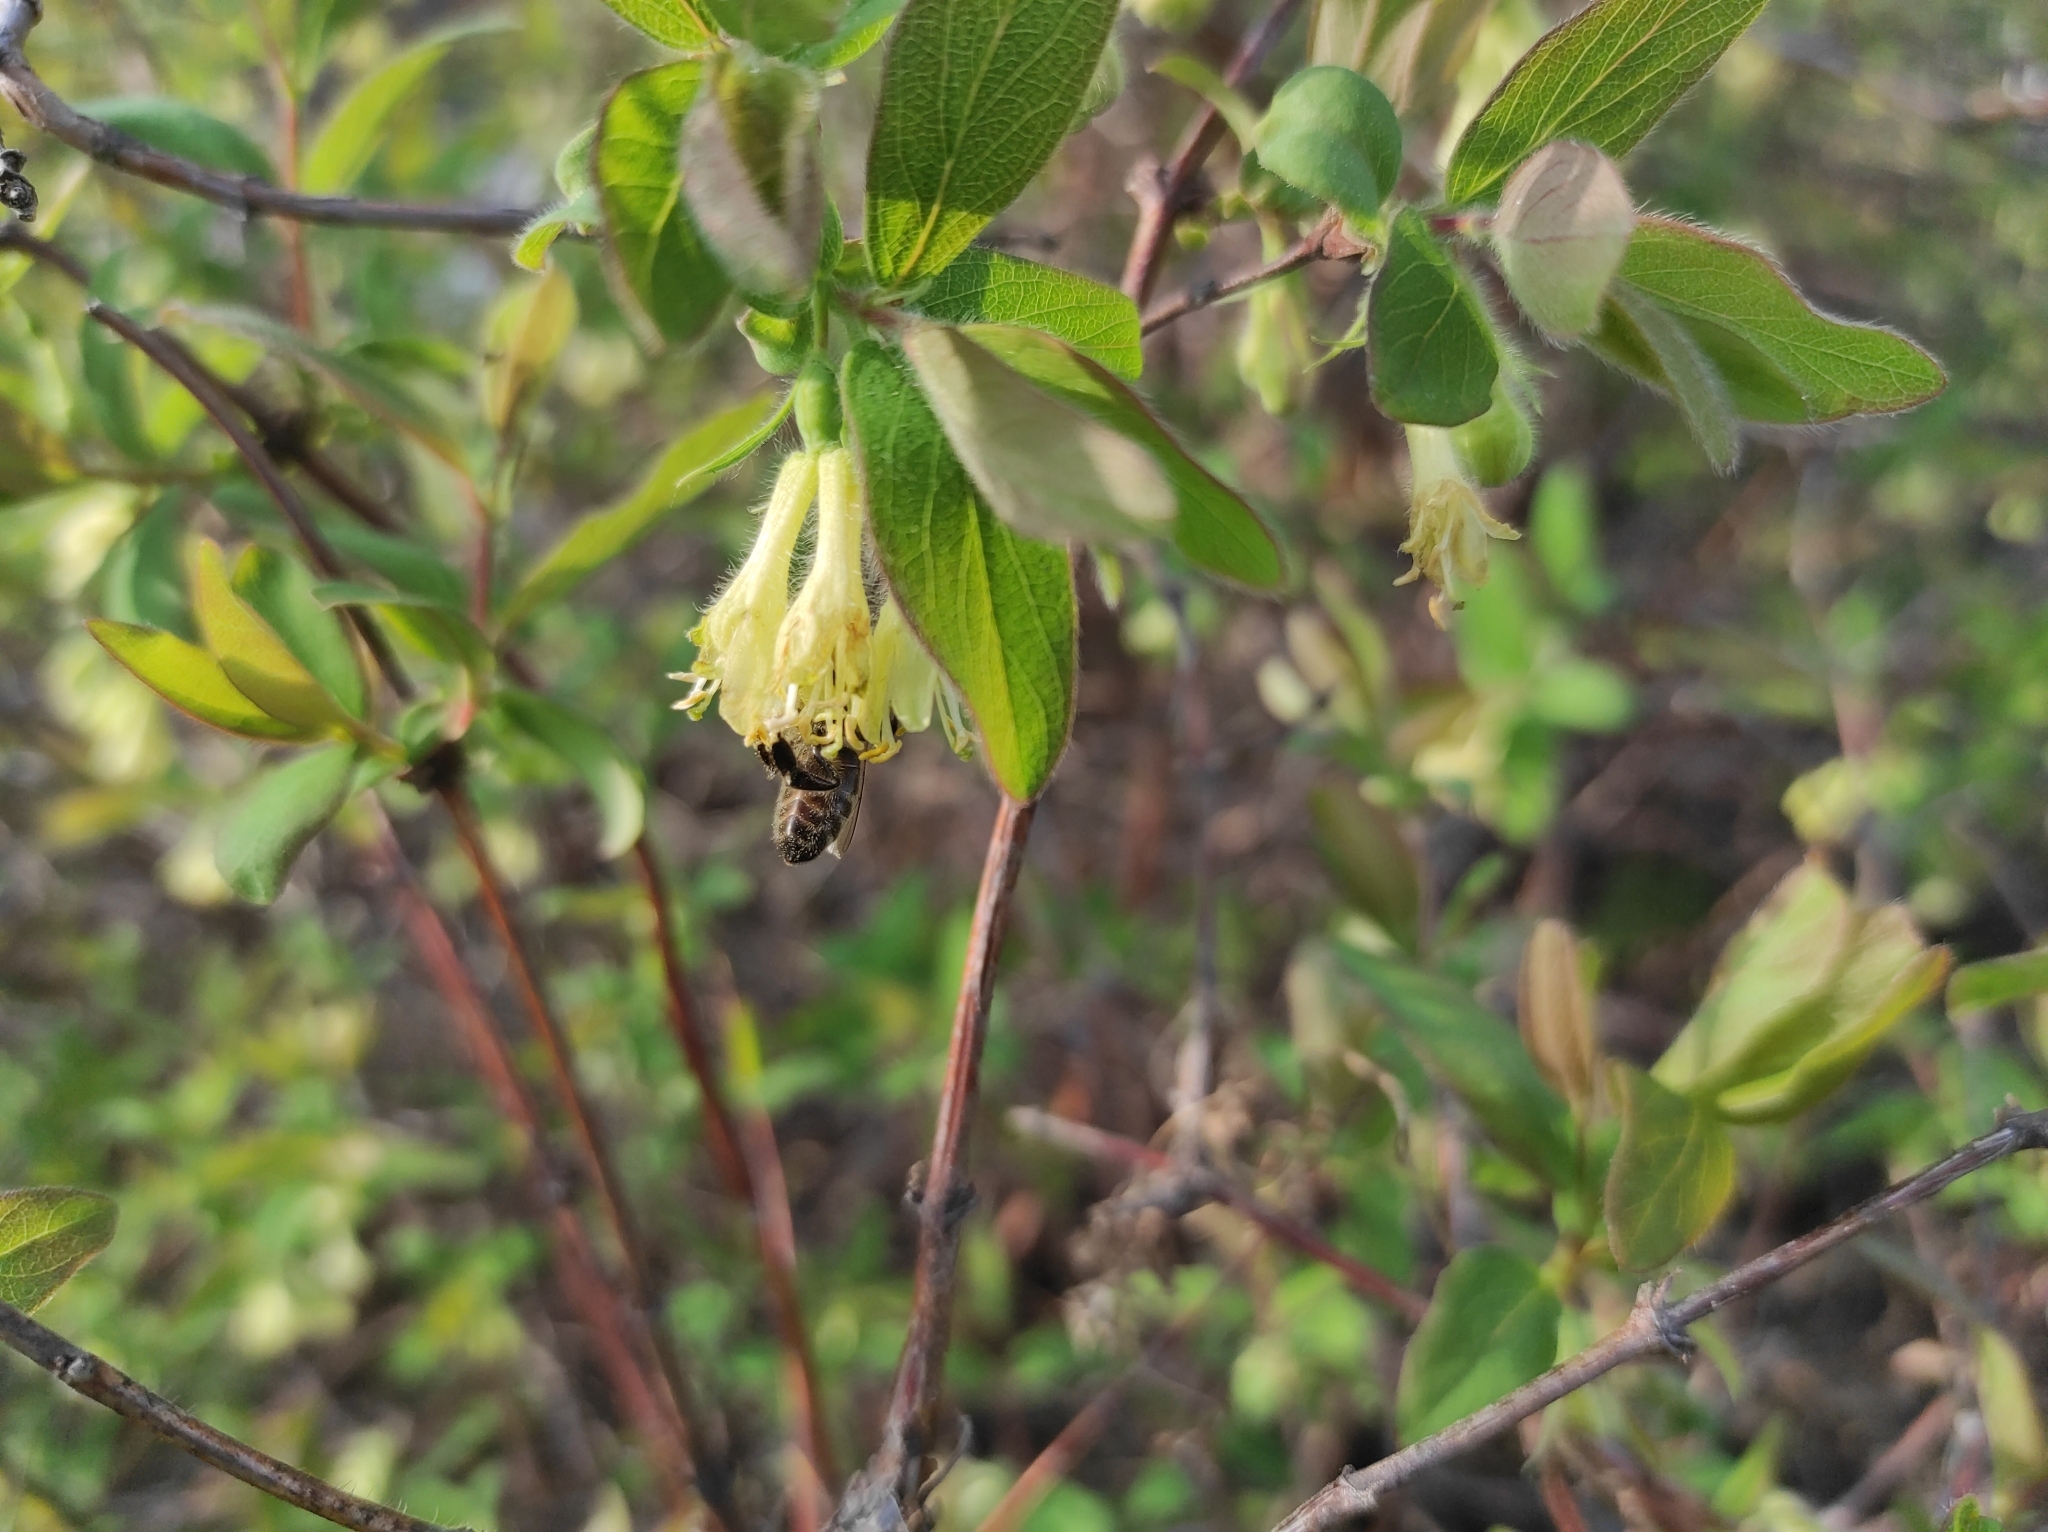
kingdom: Animalia
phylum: Arthropoda
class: Insecta
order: Hymenoptera
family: Apidae
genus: Apis
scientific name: Apis mellifera
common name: Honey bee
